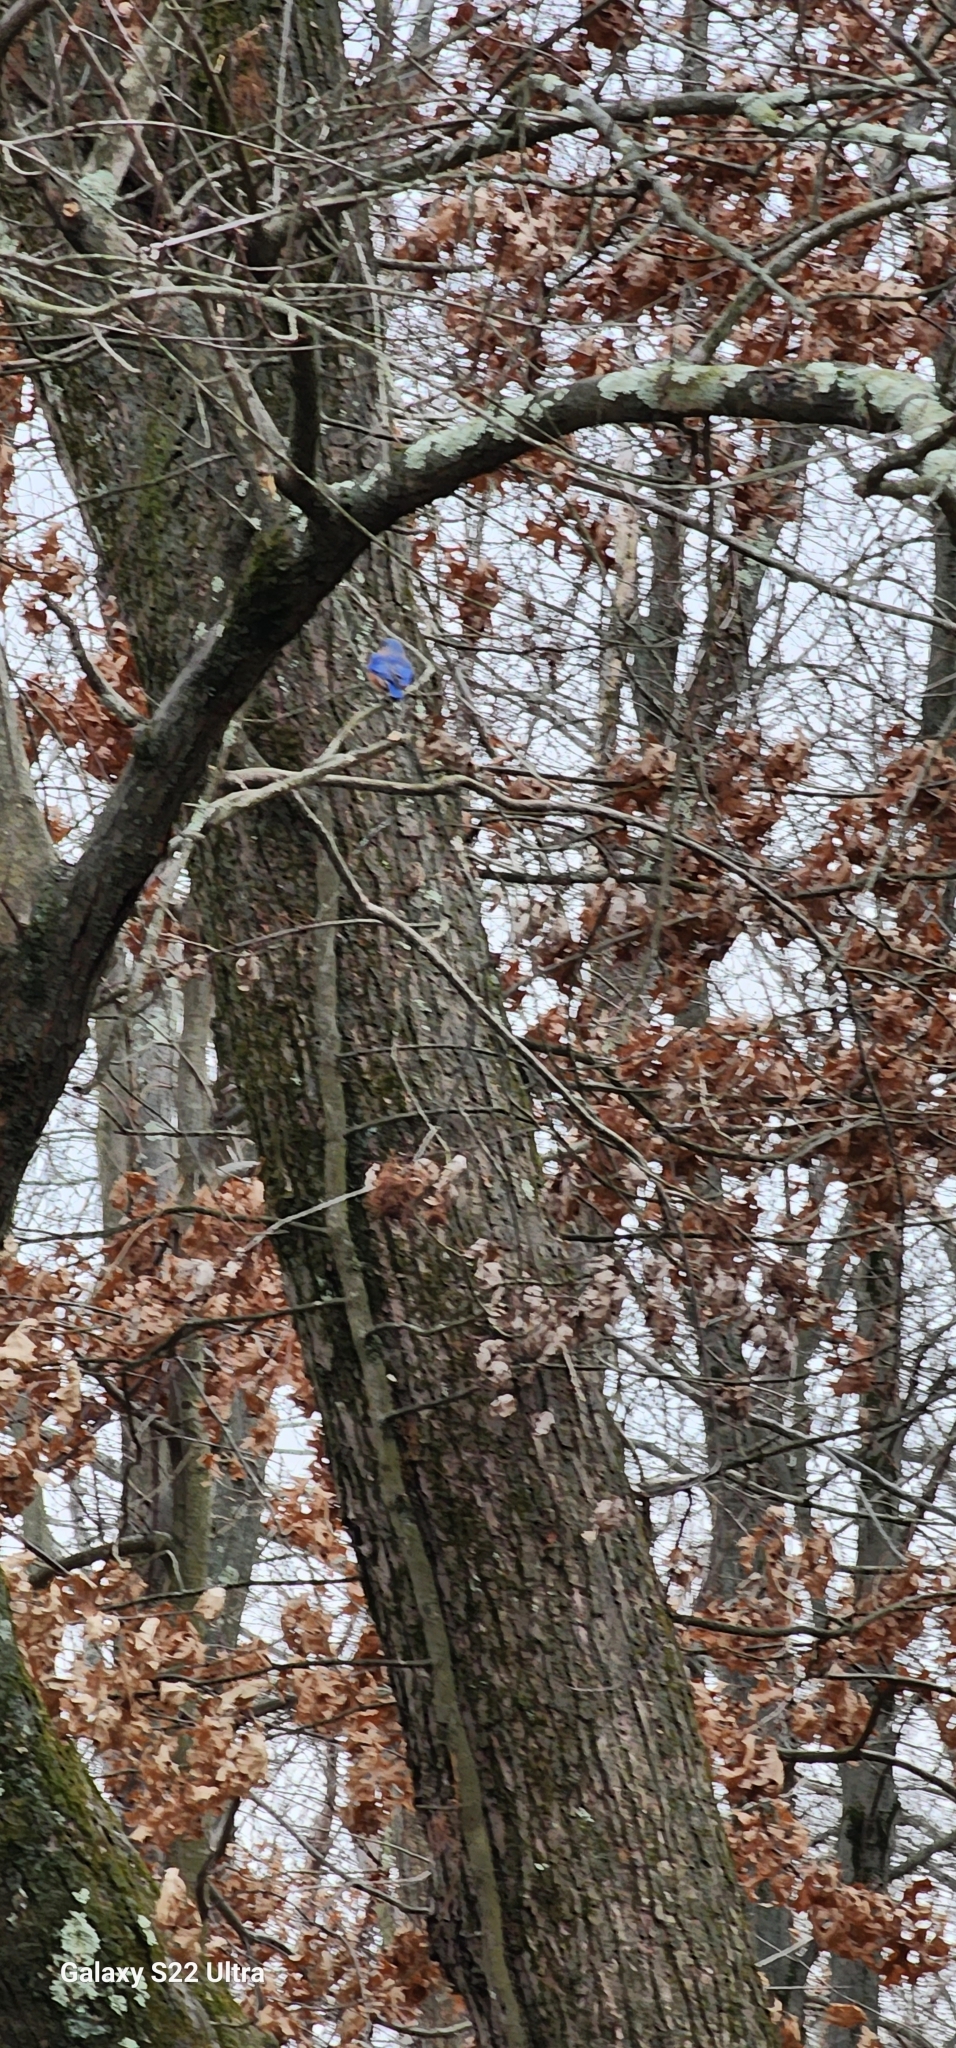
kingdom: Animalia
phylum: Chordata
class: Aves
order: Passeriformes
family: Turdidae
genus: Sialia
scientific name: Sialia sialis
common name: Eastern bluebird
